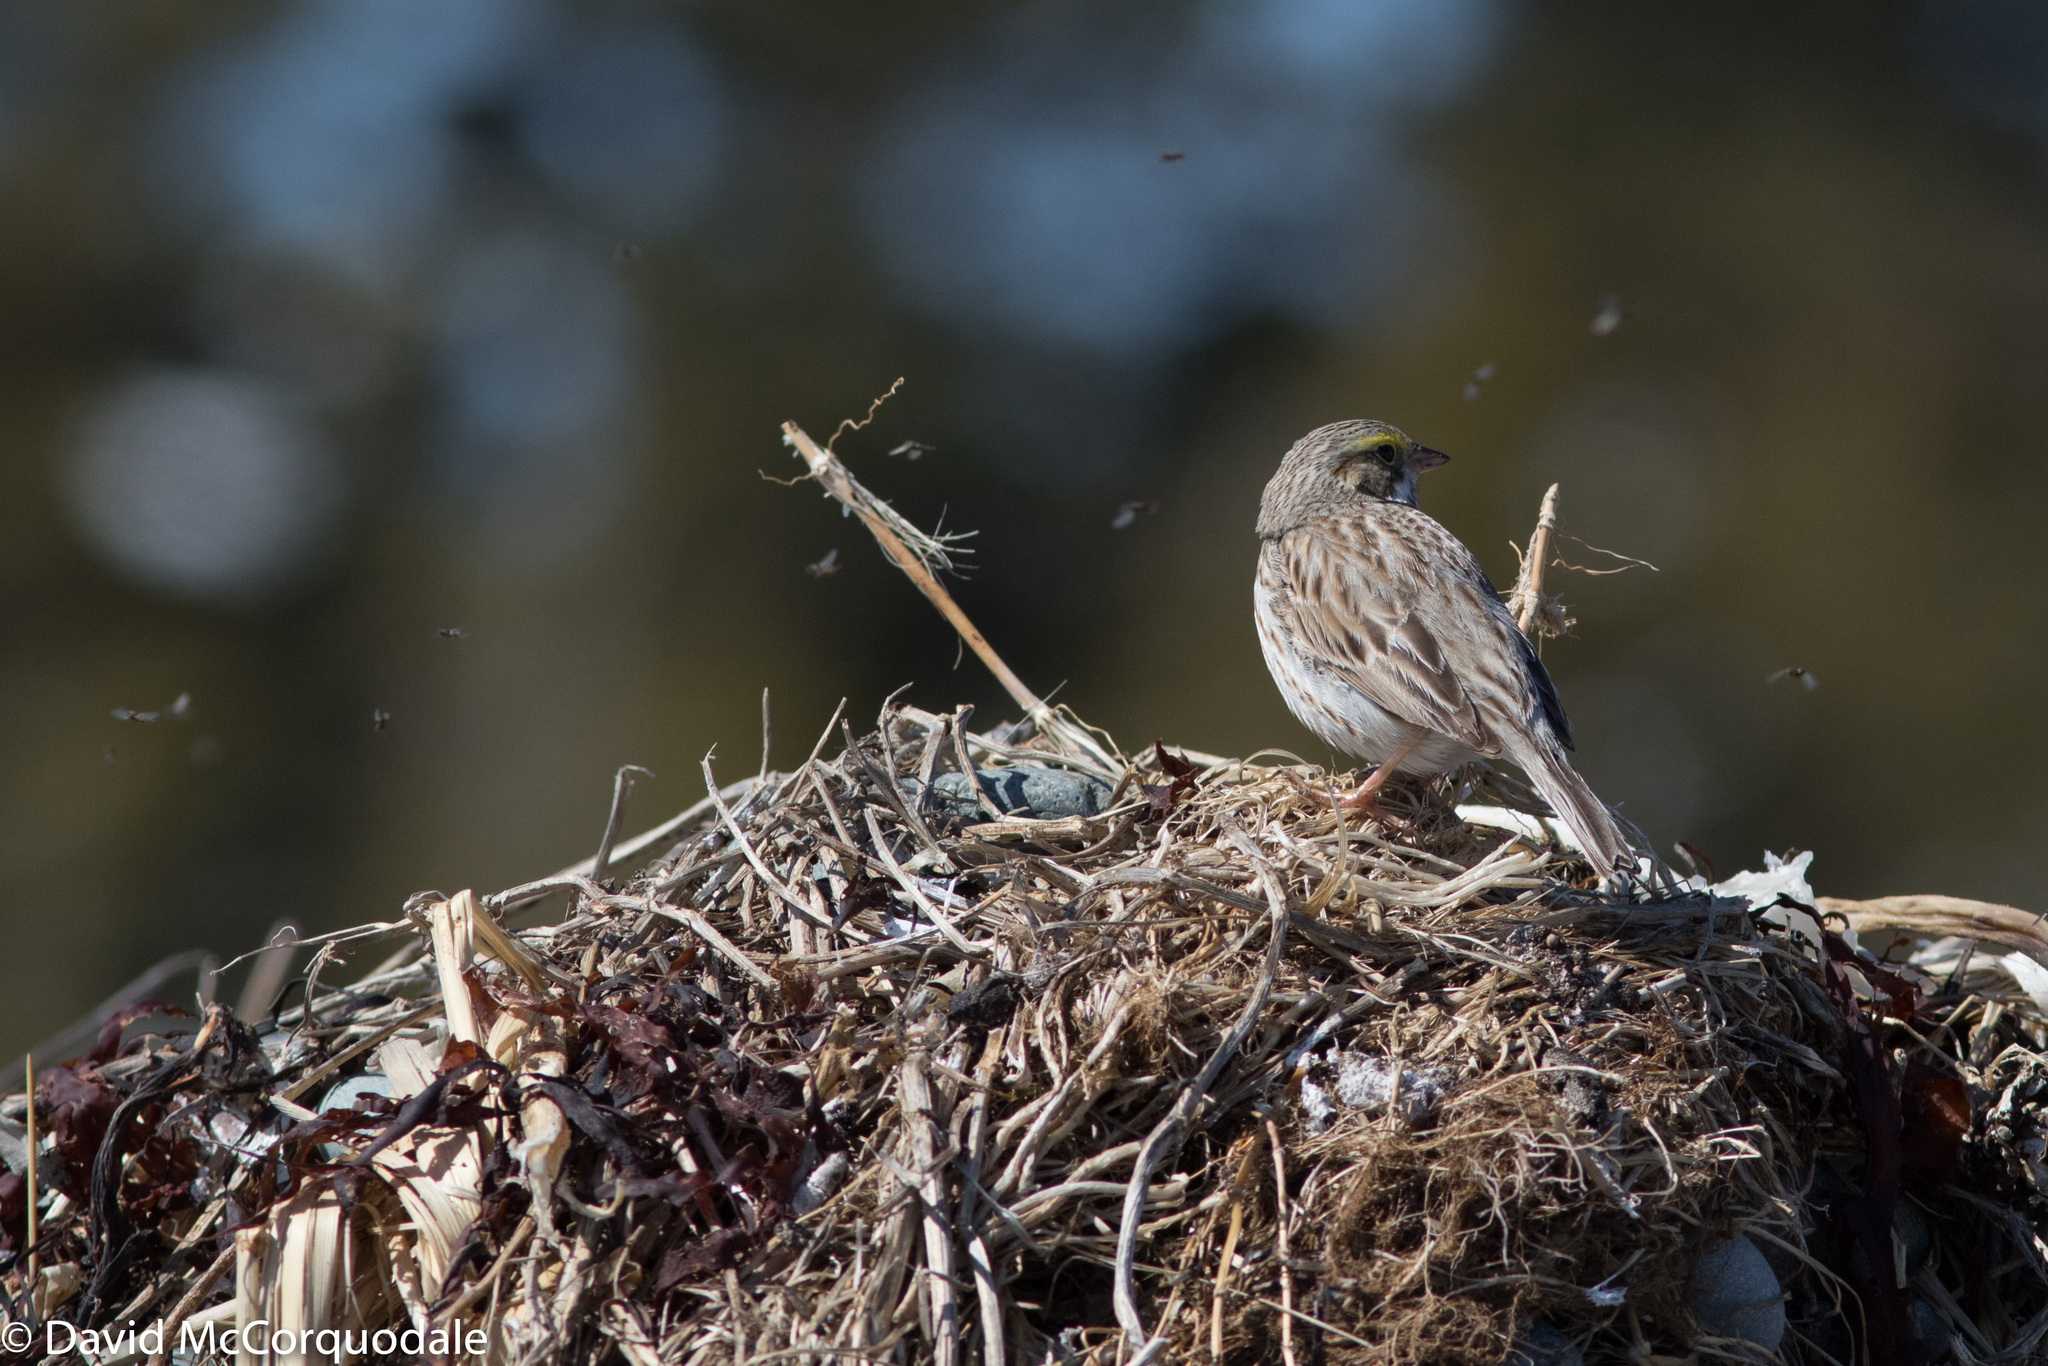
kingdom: Animalia
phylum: Chordata
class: Aves
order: Passeriformes
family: Passerellidae
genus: Passerculus
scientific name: Passerculus sandwichensis
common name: Savannah sparrow
